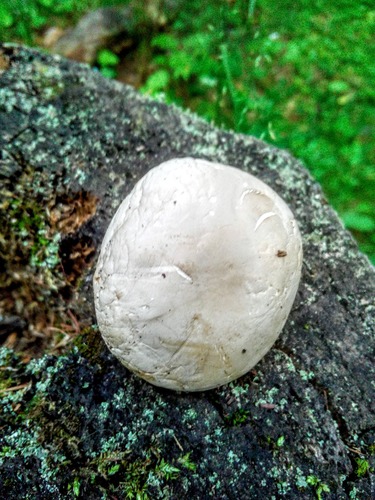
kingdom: Fungi
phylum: Basidiomycota
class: Agaricomycetes
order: Agaricales
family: Entolomataceae
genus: Clitopilus
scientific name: Clitopilus prunulus
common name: The miller
